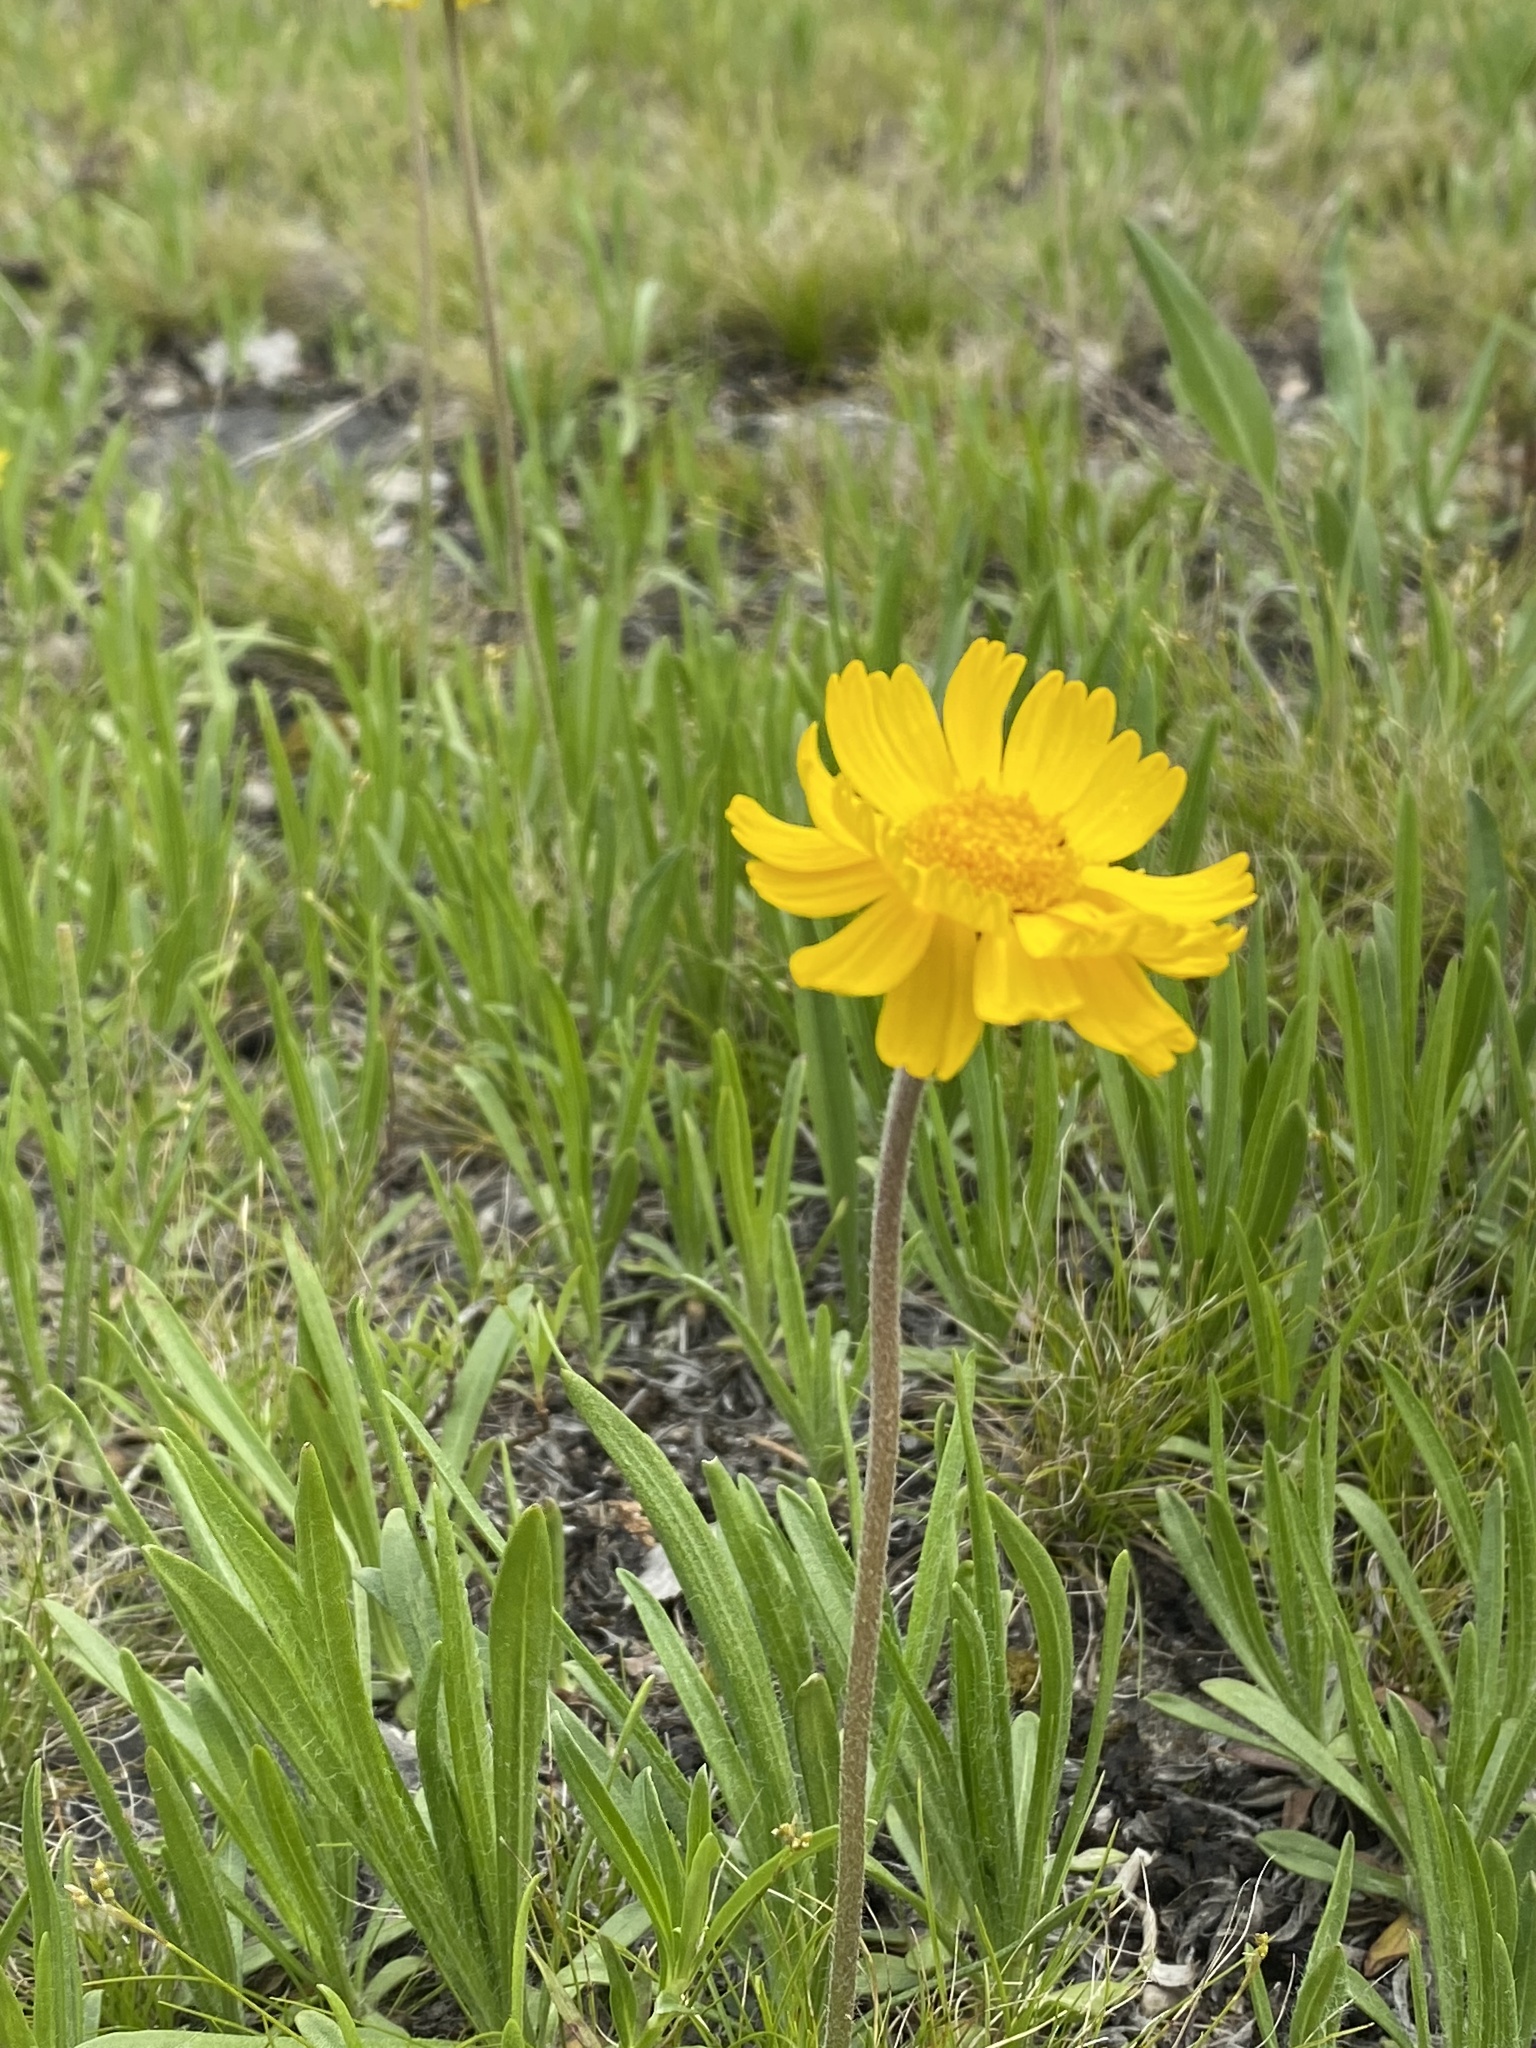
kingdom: Plantae
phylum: Tracheophyta
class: Magnoliopsida
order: Asterales
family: Asteraceae
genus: Tetraneuris
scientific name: Tetraneuris herbacea
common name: Lakeside daisy
